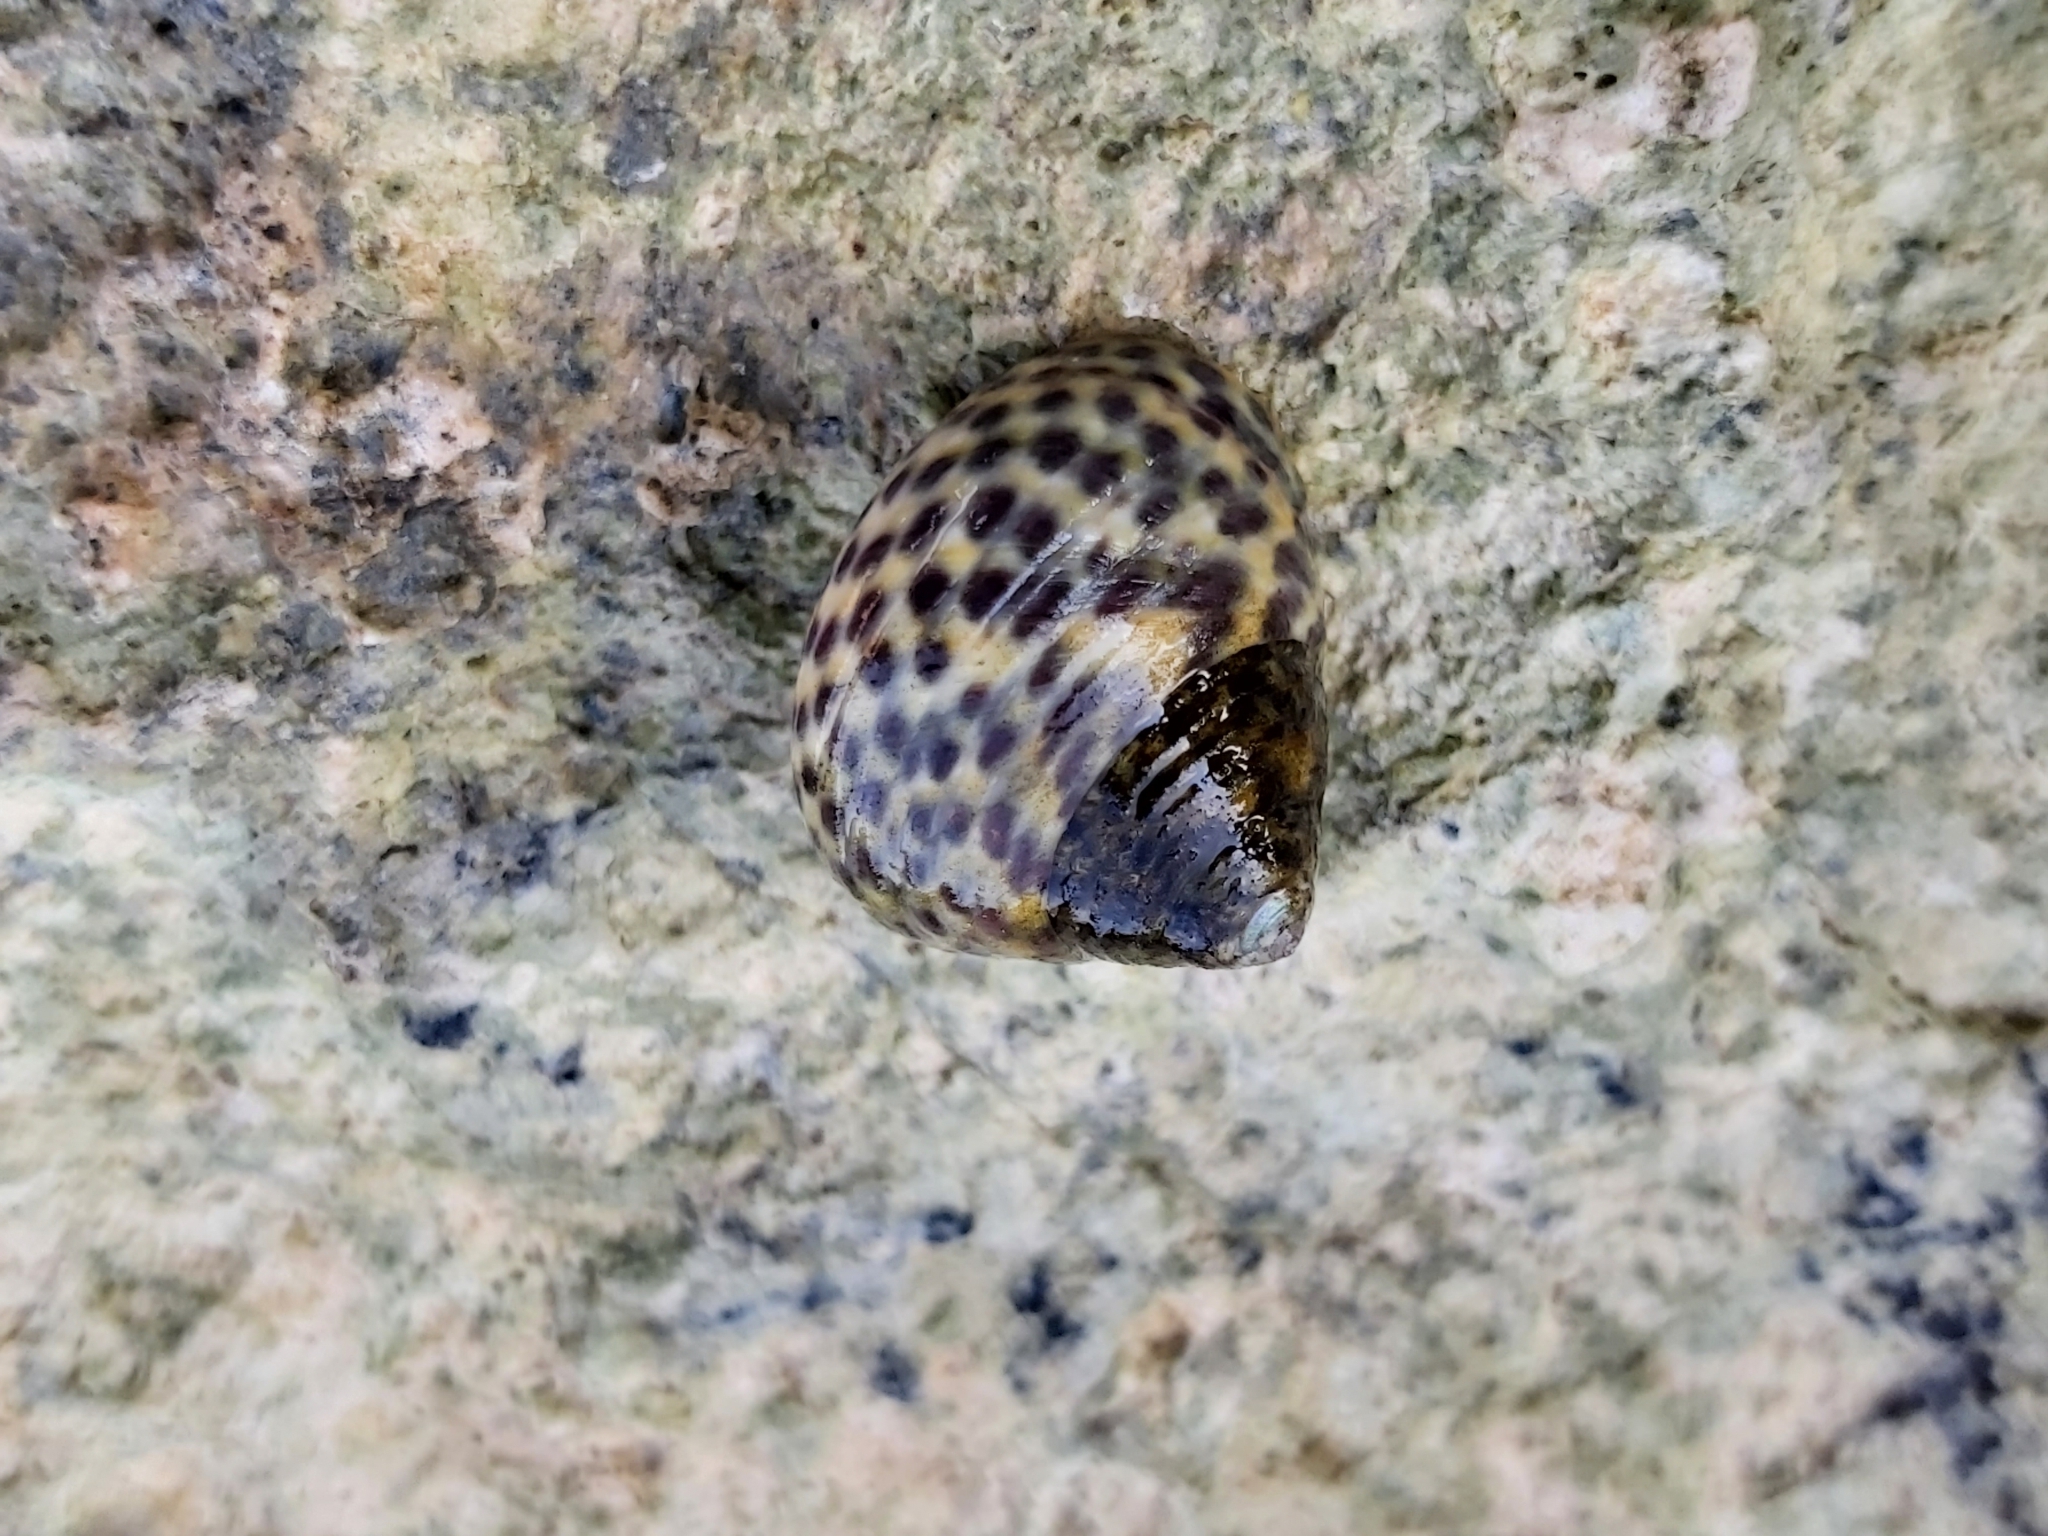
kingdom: Animalia
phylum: Mollusca
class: Gastropoda
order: Trochida
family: Trochidae
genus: Phorcus
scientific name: Phorcus turbinatus
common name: Turbinate monodont
